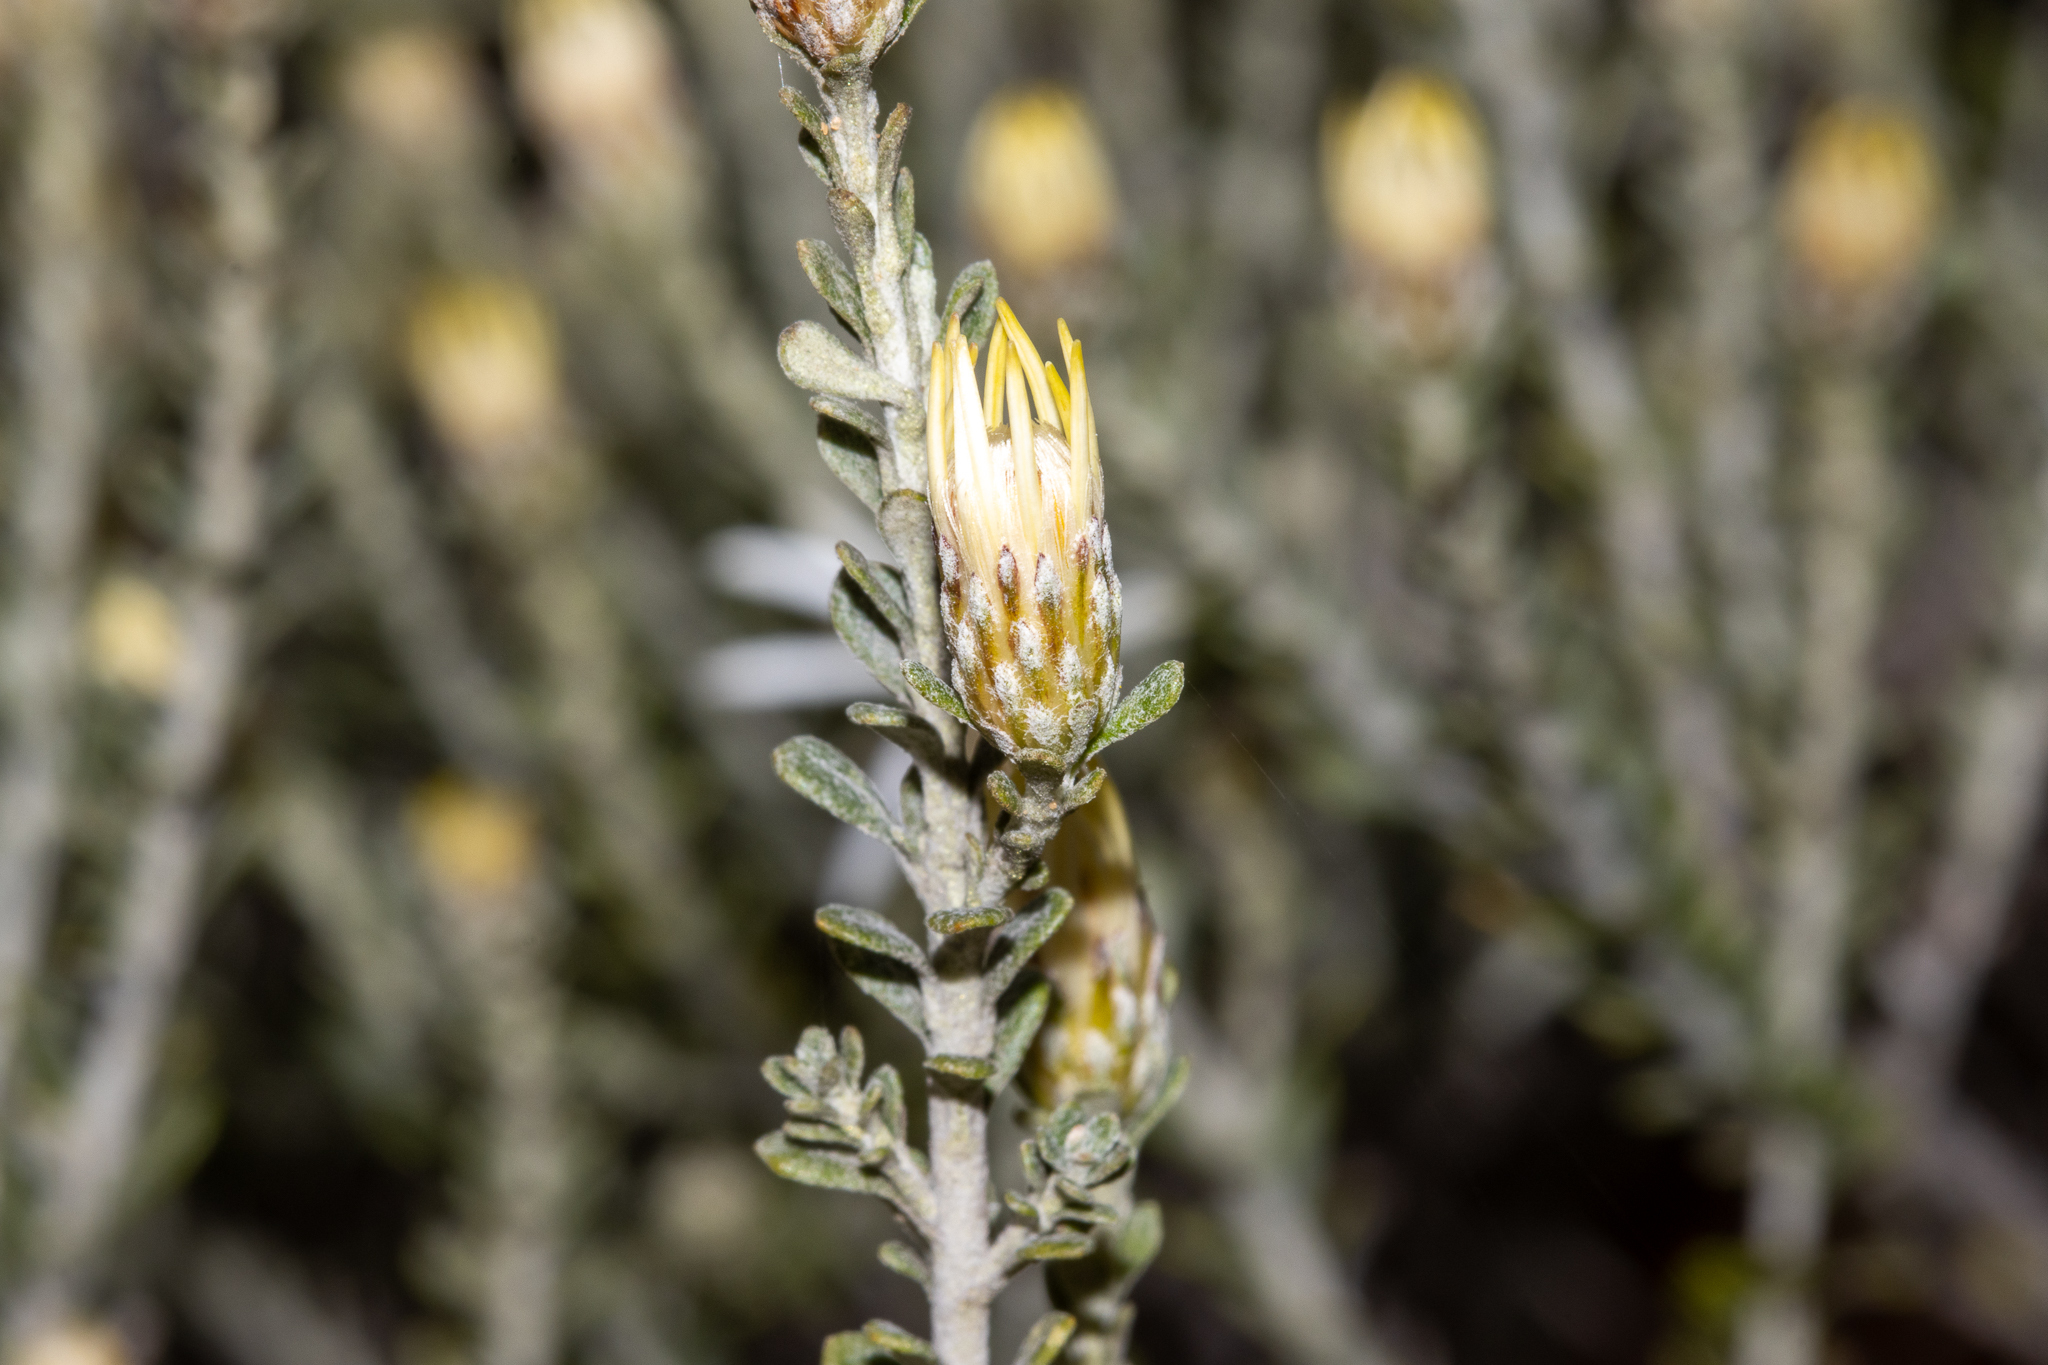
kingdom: Plantae
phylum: Tracheophyta
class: Magnoliopsida
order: Asterales
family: Asteraceae
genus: Olearia
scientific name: Olearia pimeleoides
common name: Showy daisybush
